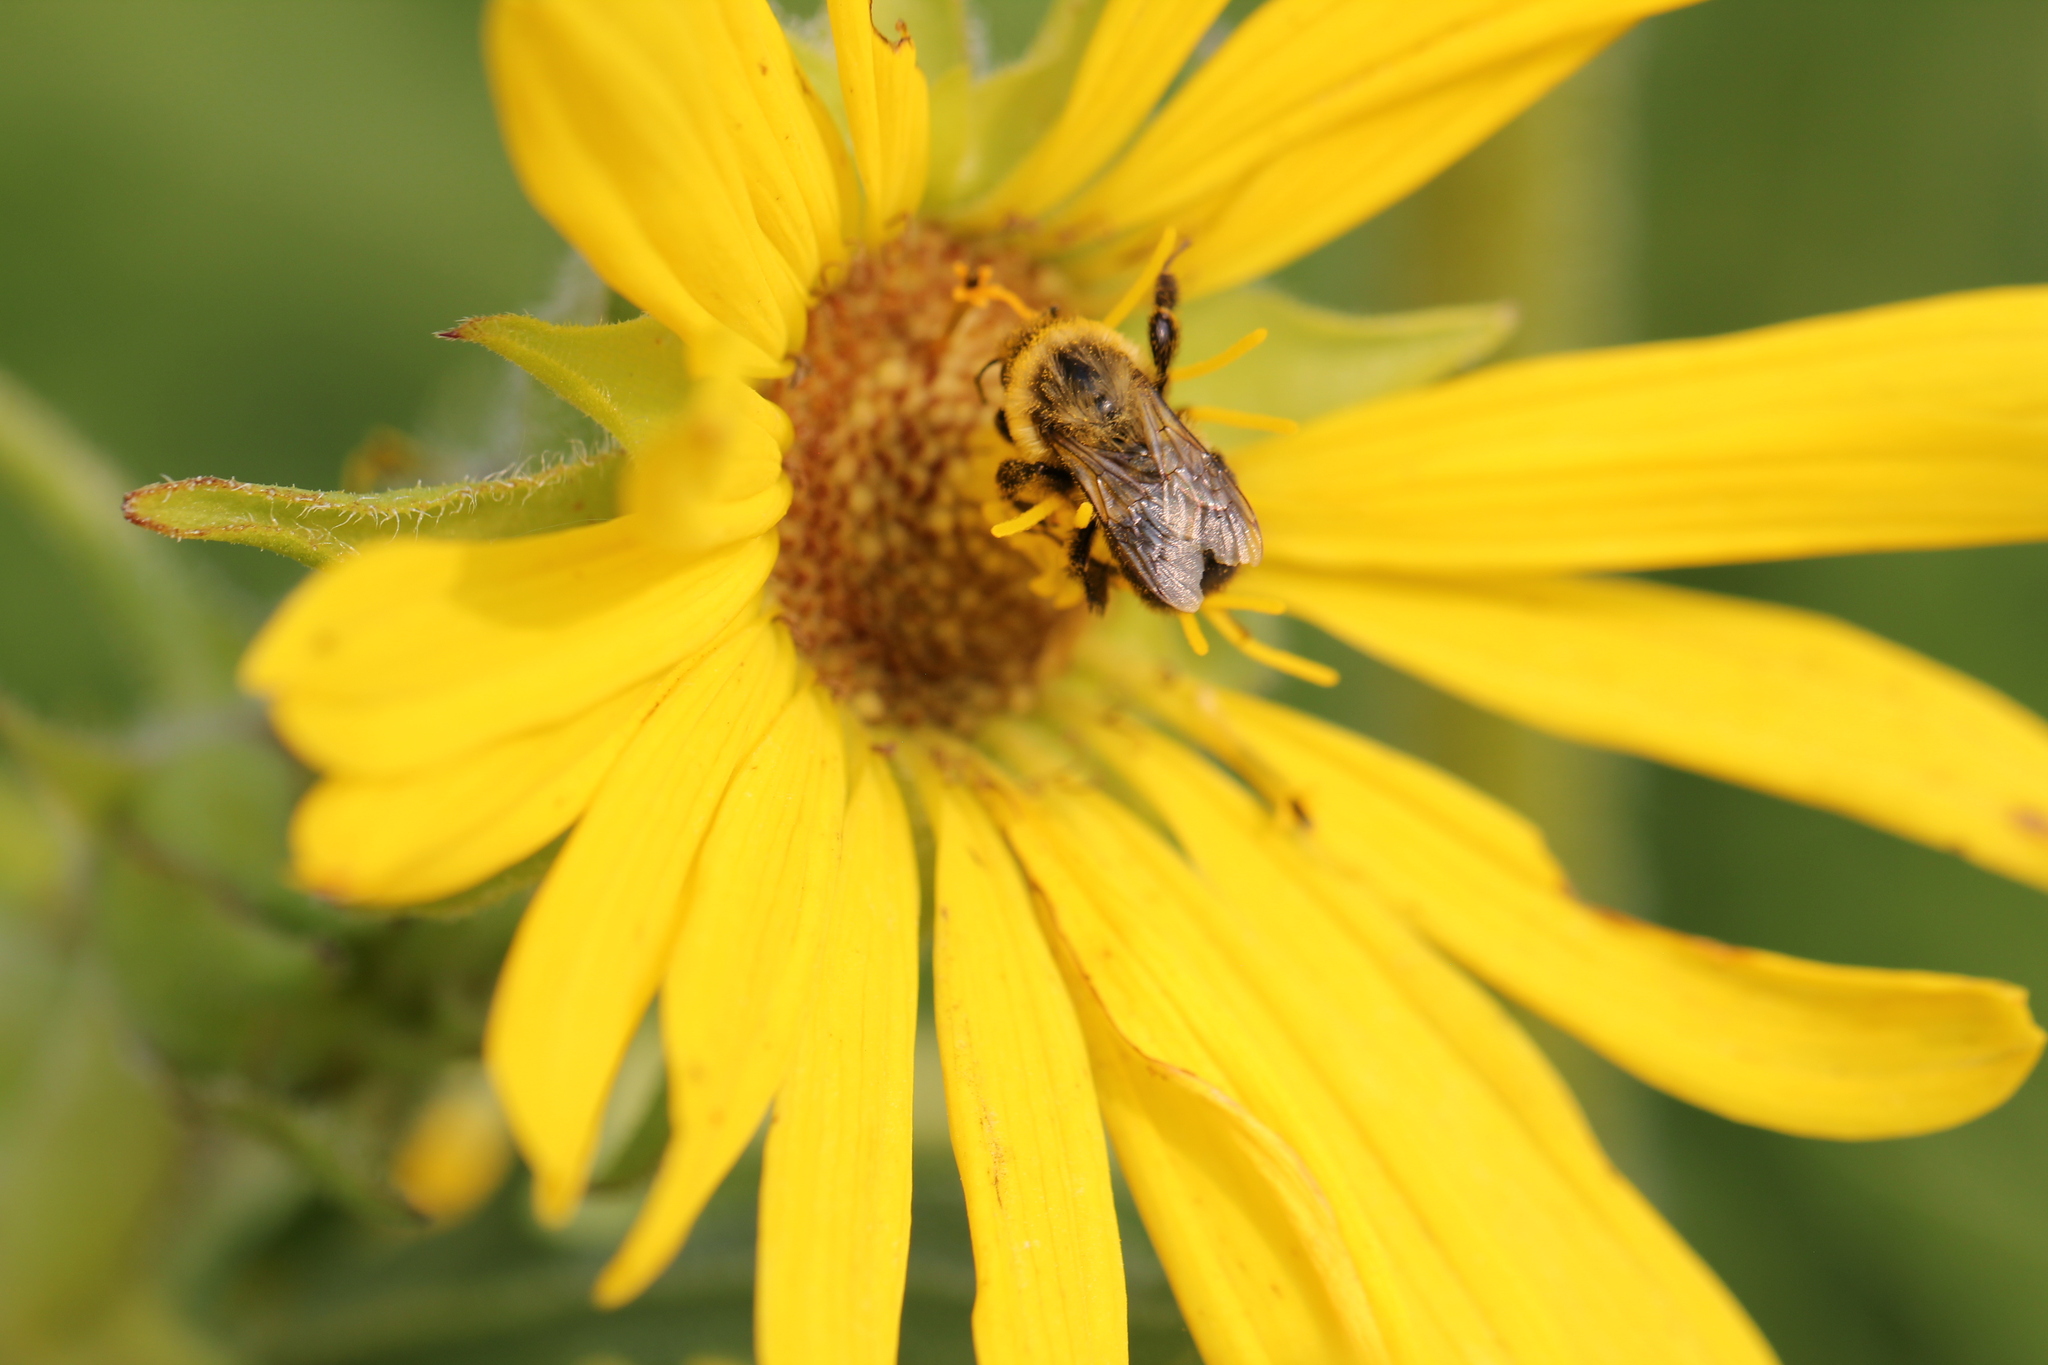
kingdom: Animalia
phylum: Arthropoda
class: Insecta
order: Hymenoptera
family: Apidae
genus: Bombus
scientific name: Bombus impatiens
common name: Common eastern bumble bee
